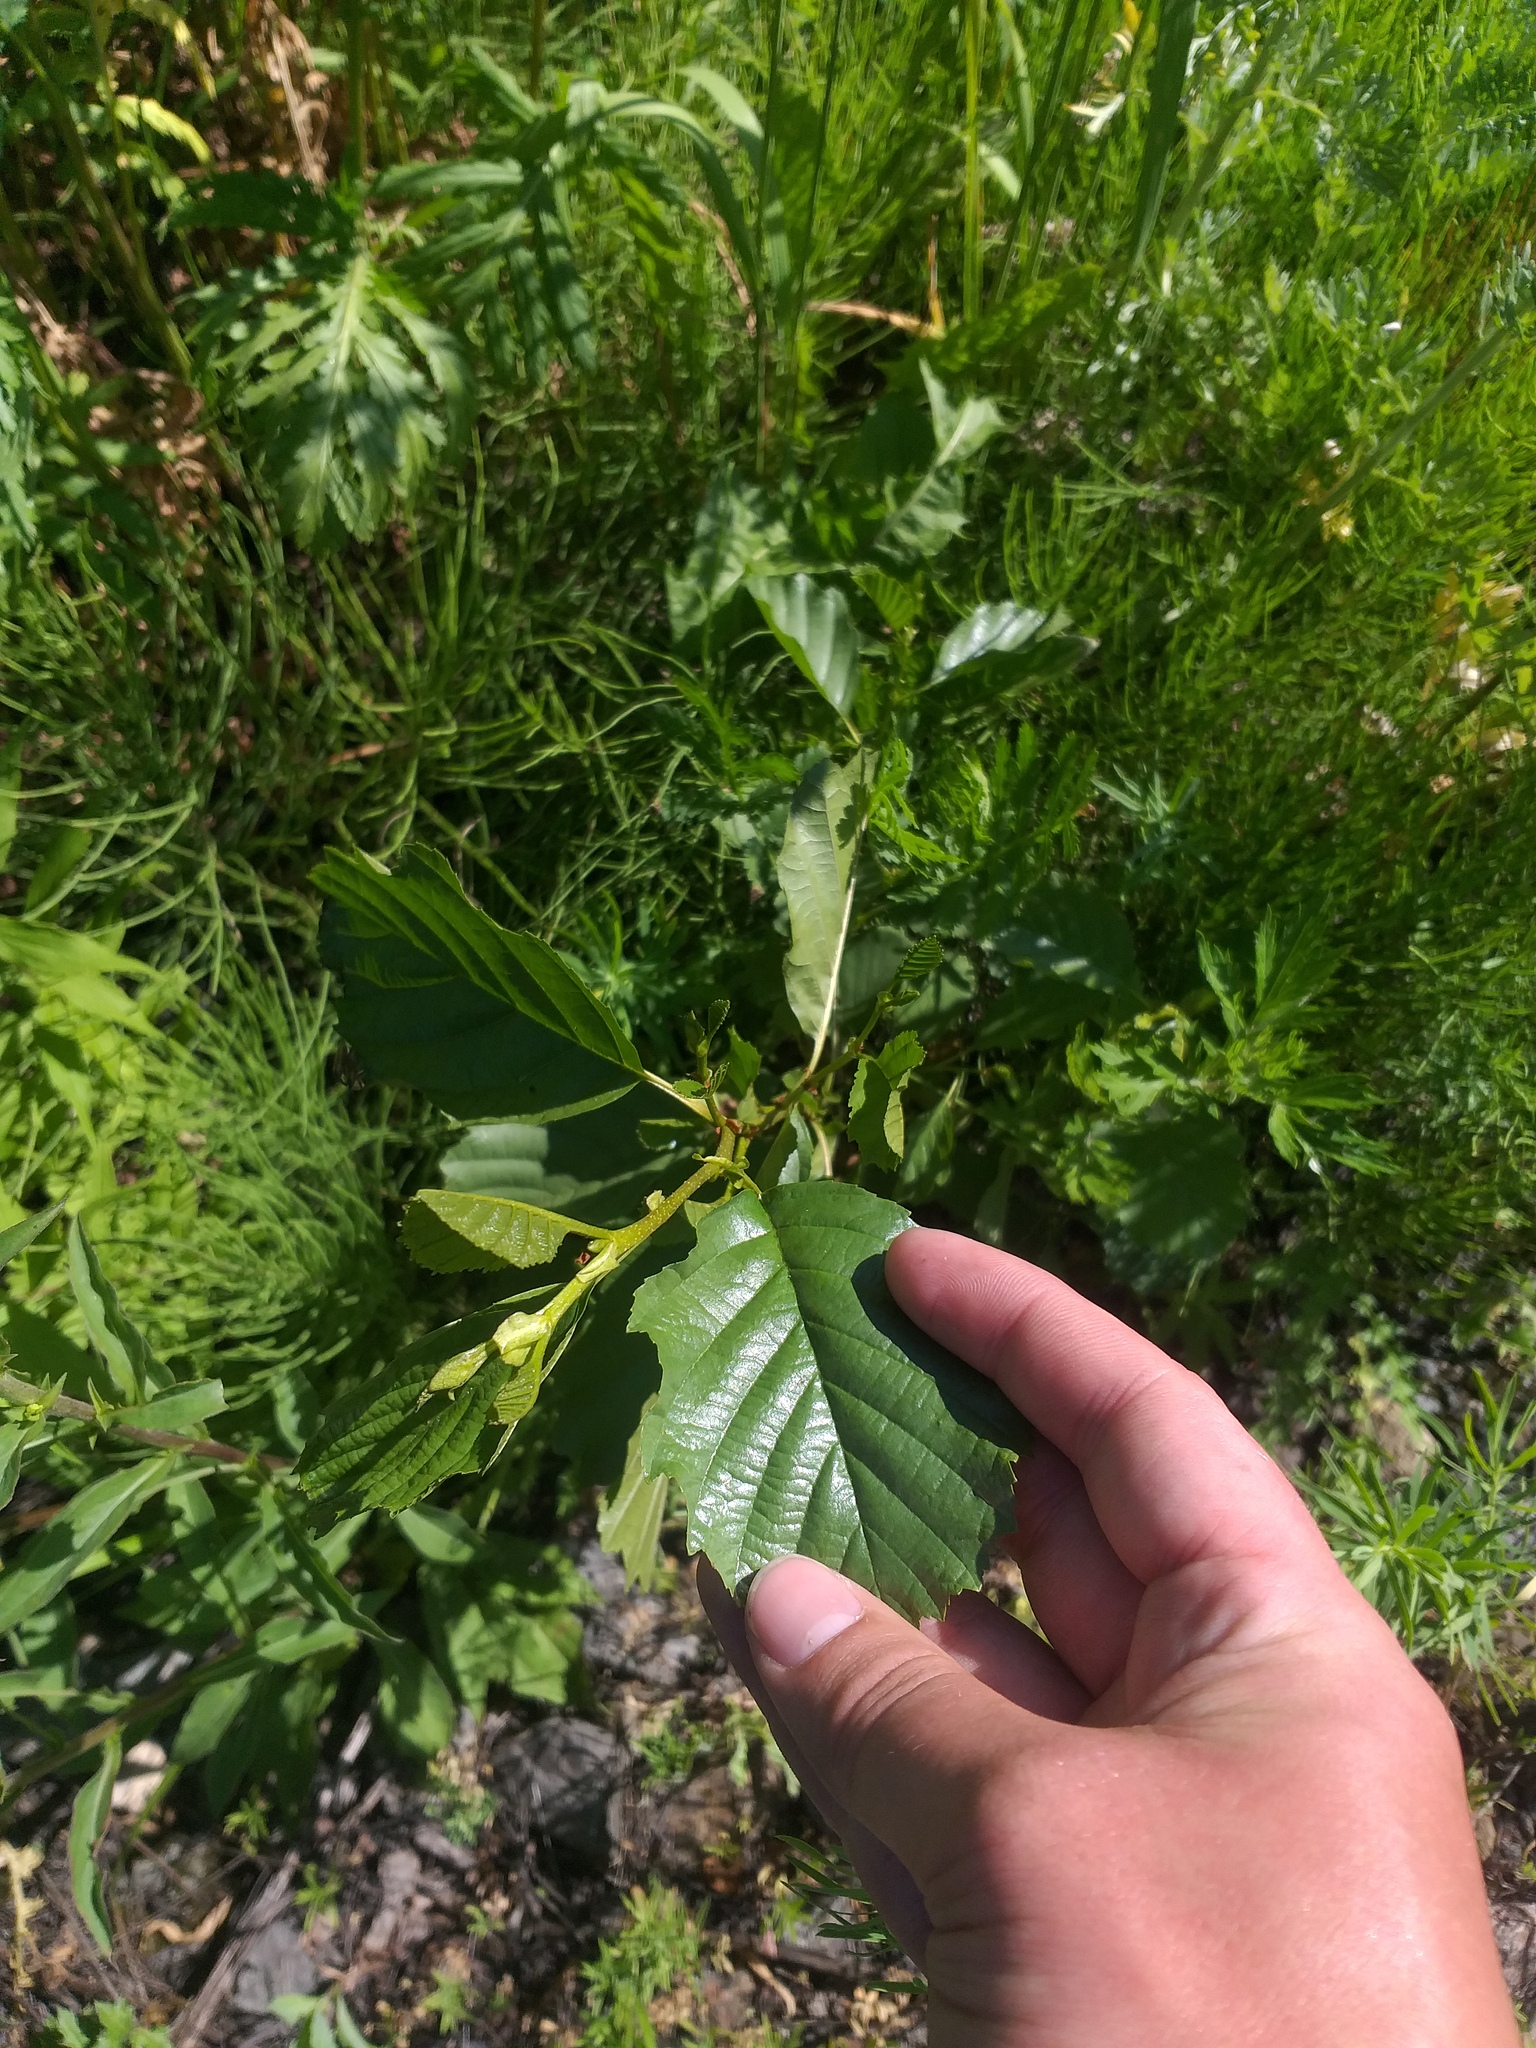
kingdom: Plantae
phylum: Tracheophyta
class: Magnoliopsida
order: Fagales
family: Betulaceae
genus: Alnus
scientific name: Alnus glutinosa
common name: Black alder
